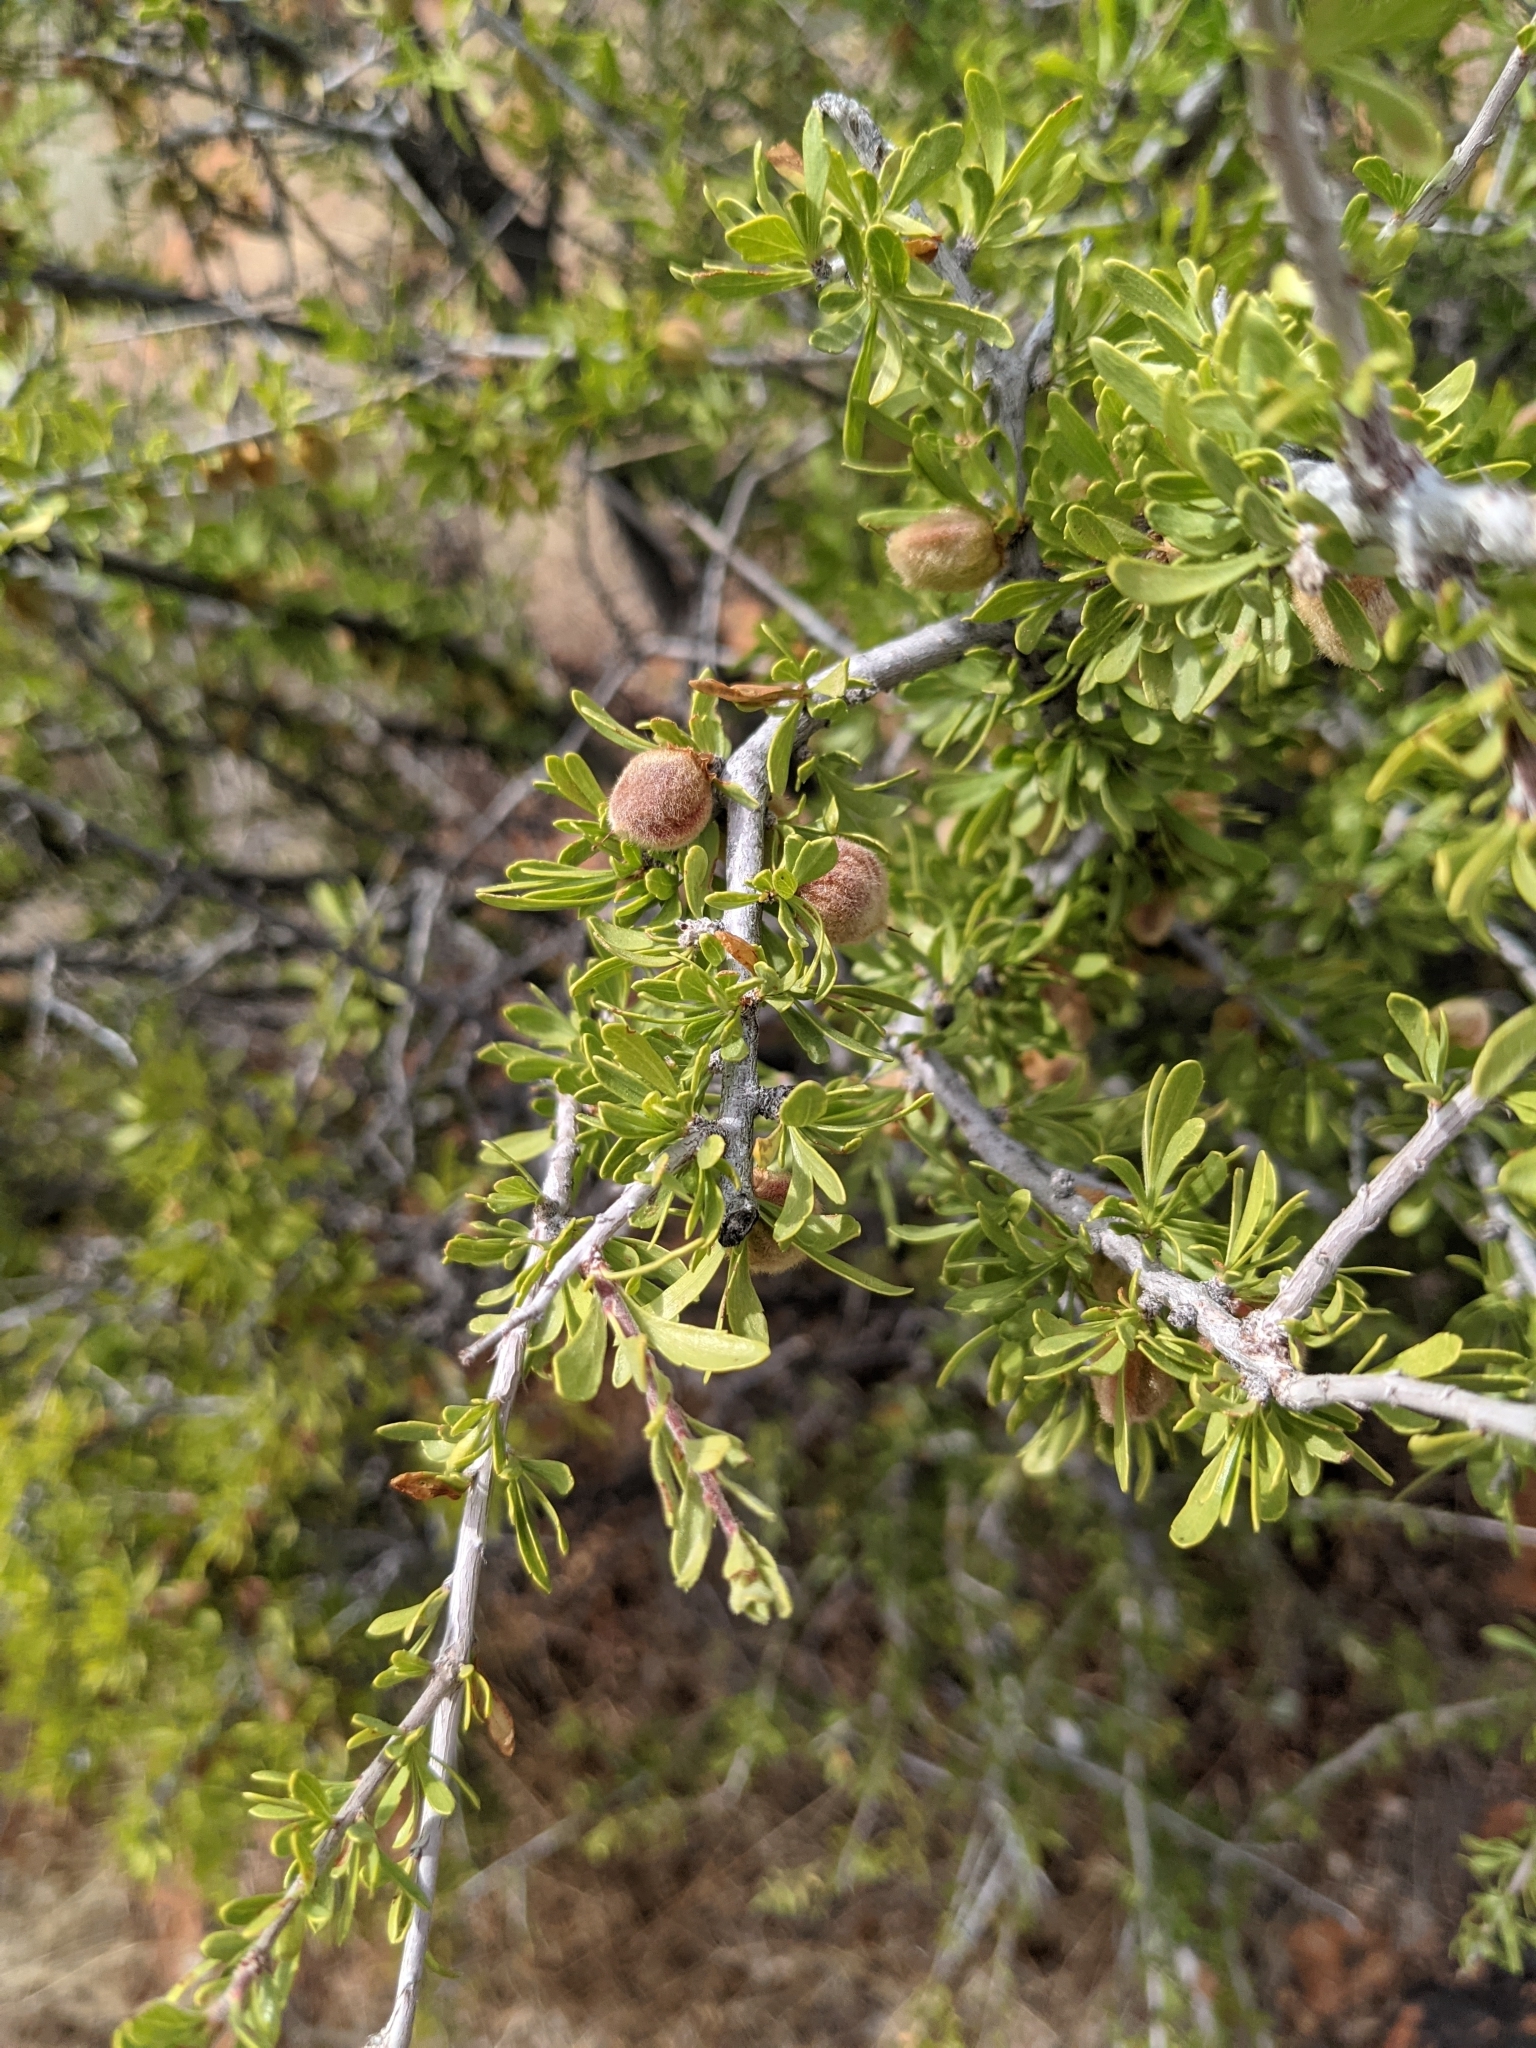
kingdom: Plantae
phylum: Tracheophyta
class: Magnoliopsida
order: Rosales
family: Rosaceae
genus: Prunus
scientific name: Prunus fasciculata
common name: Desert almond
